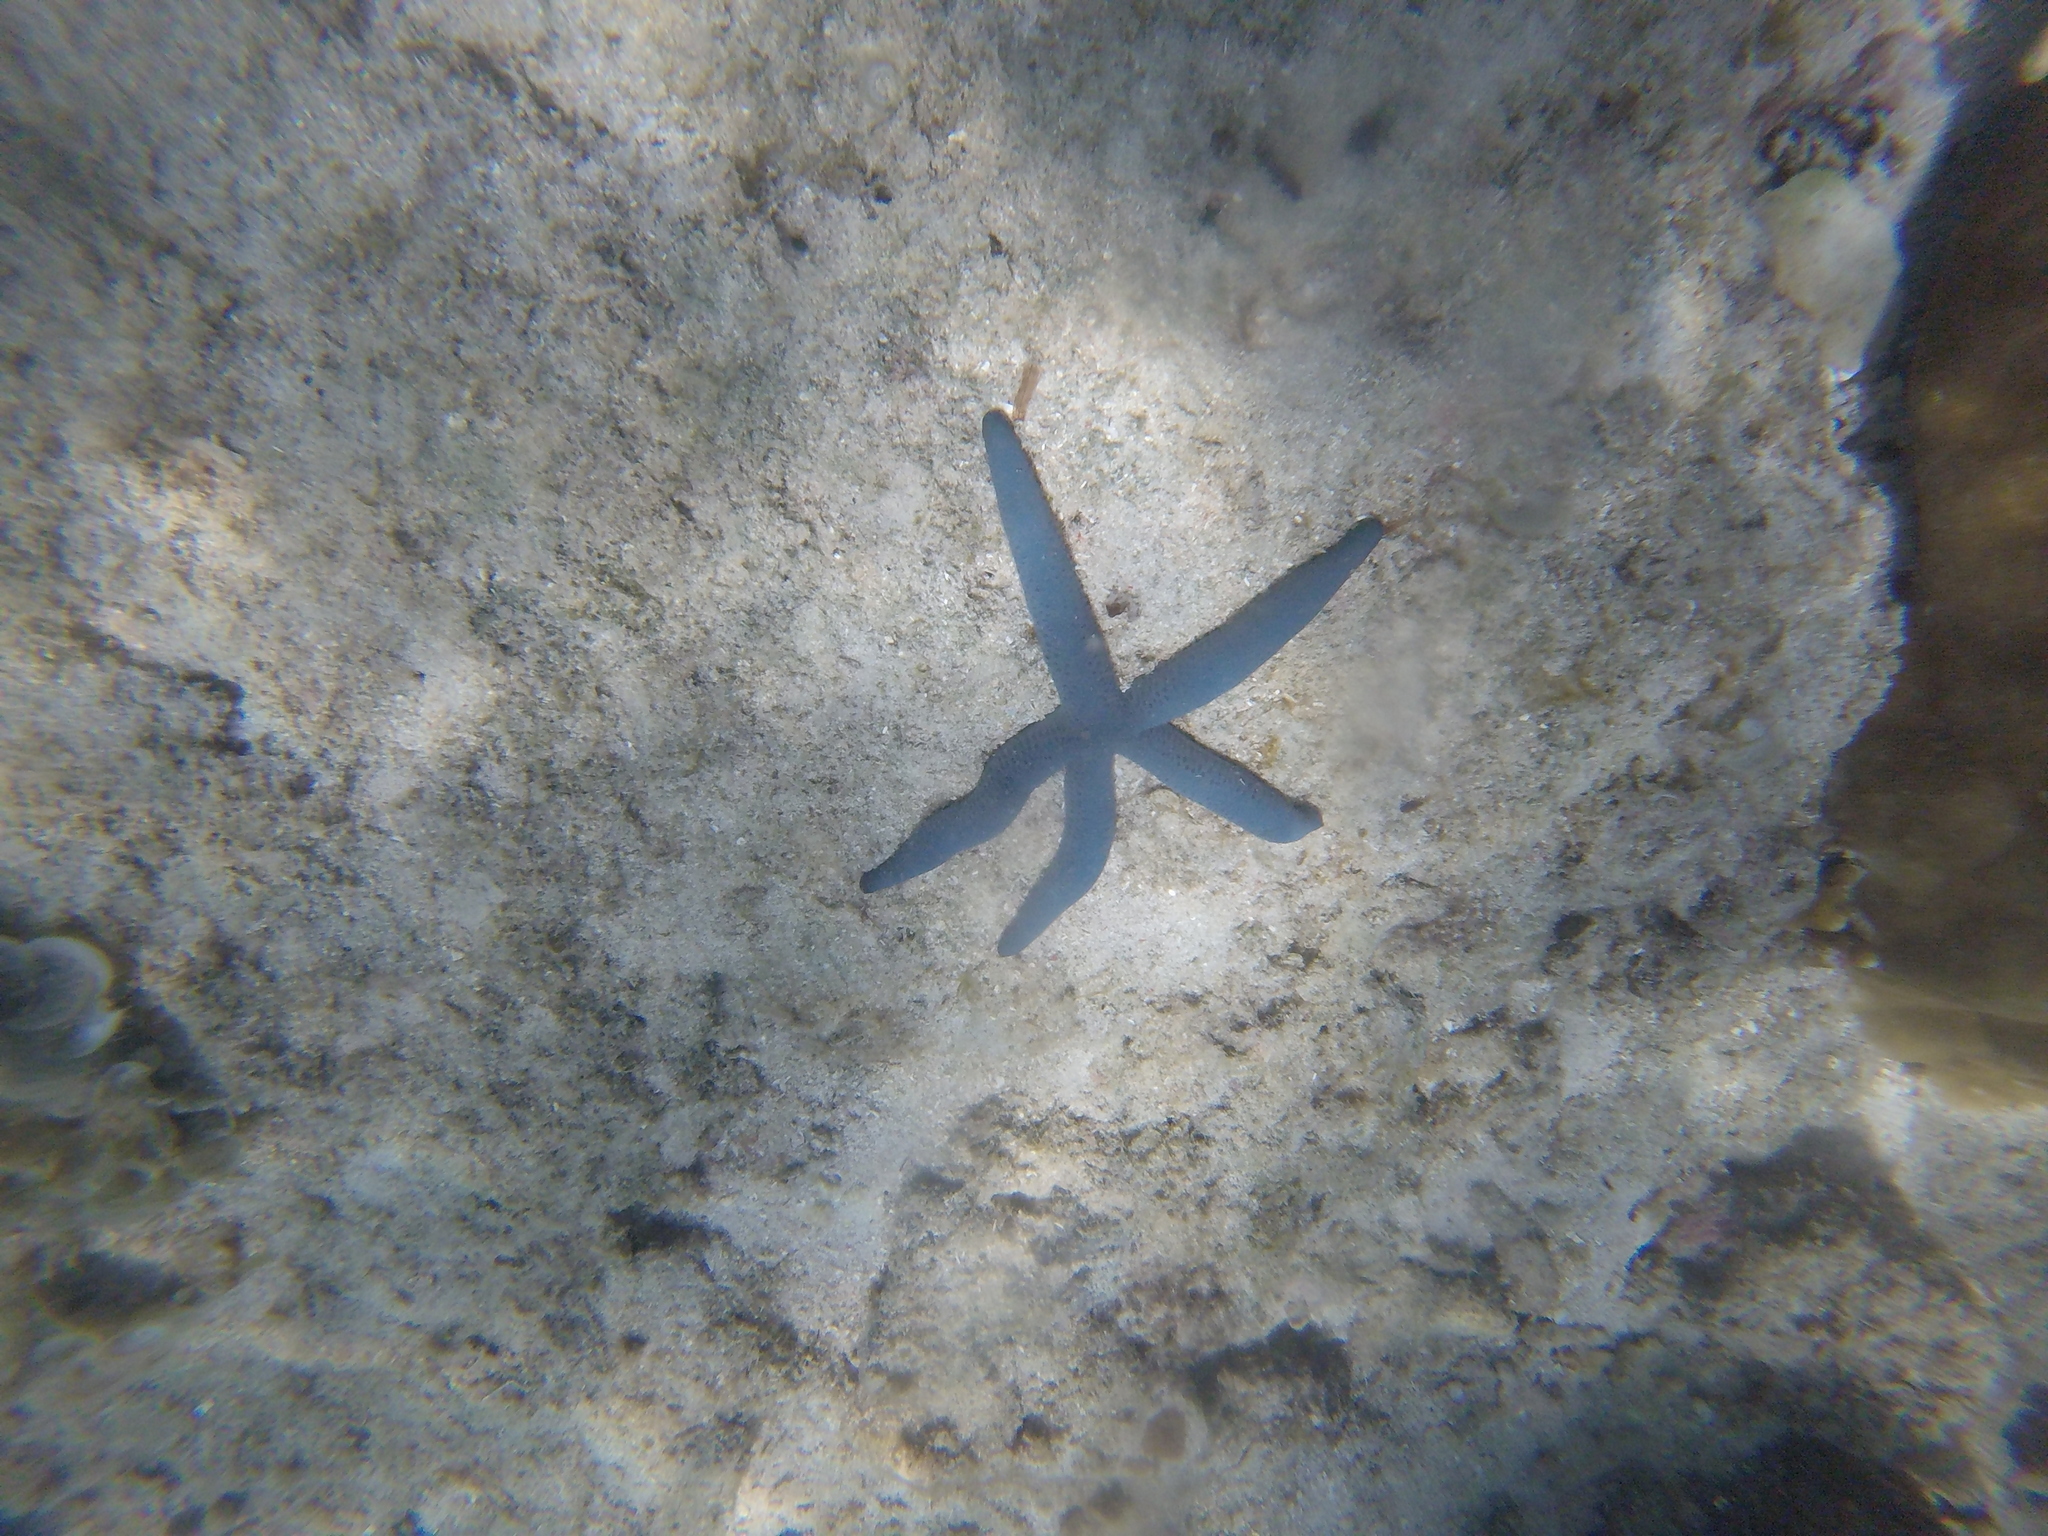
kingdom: Animalia
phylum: Echinodermata
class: Asteroidea
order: Valvatida
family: Ophidiasteridae
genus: Linckia
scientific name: Linckia laevigata
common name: Azure sea star
